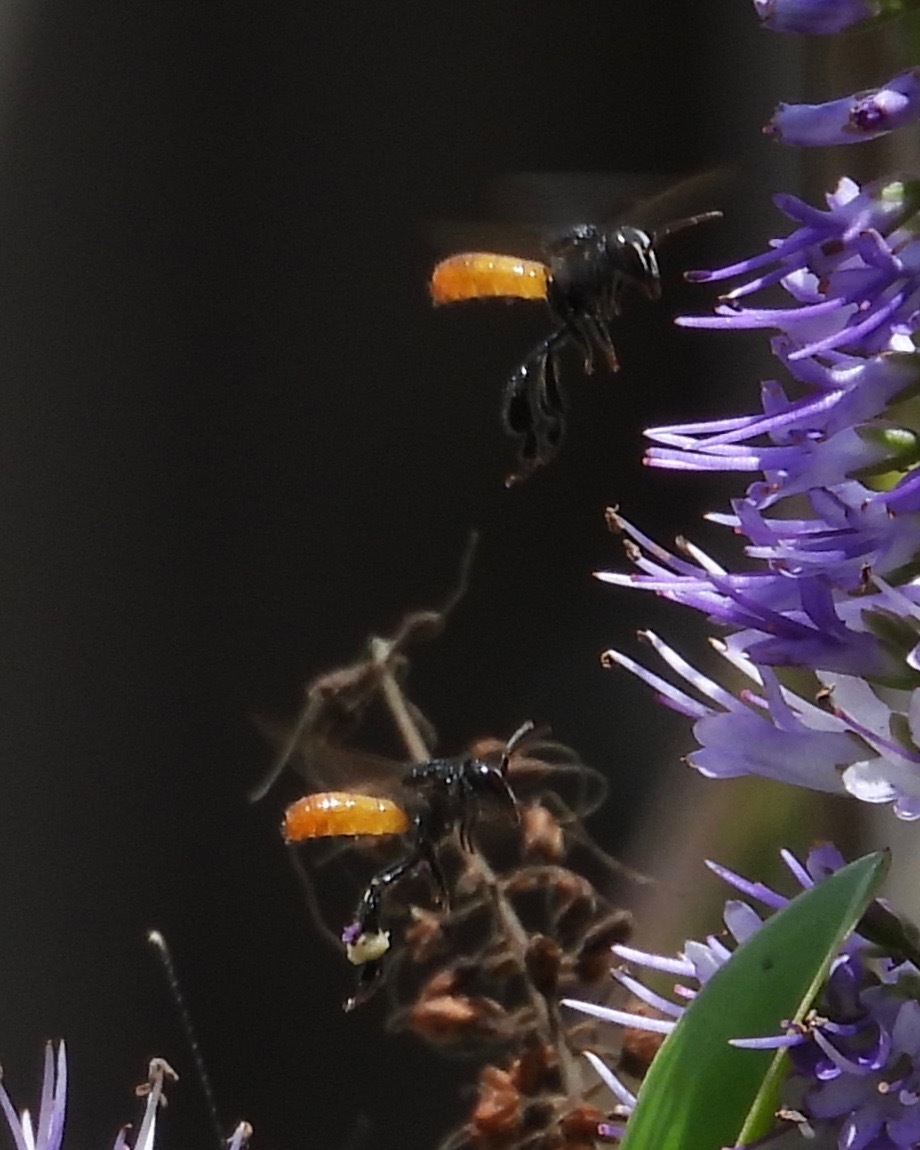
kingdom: Animalia
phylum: Arthropoda
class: Insecta
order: Hymenoptera
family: Apidae
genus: Trigona
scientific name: Trigona fulviventris
